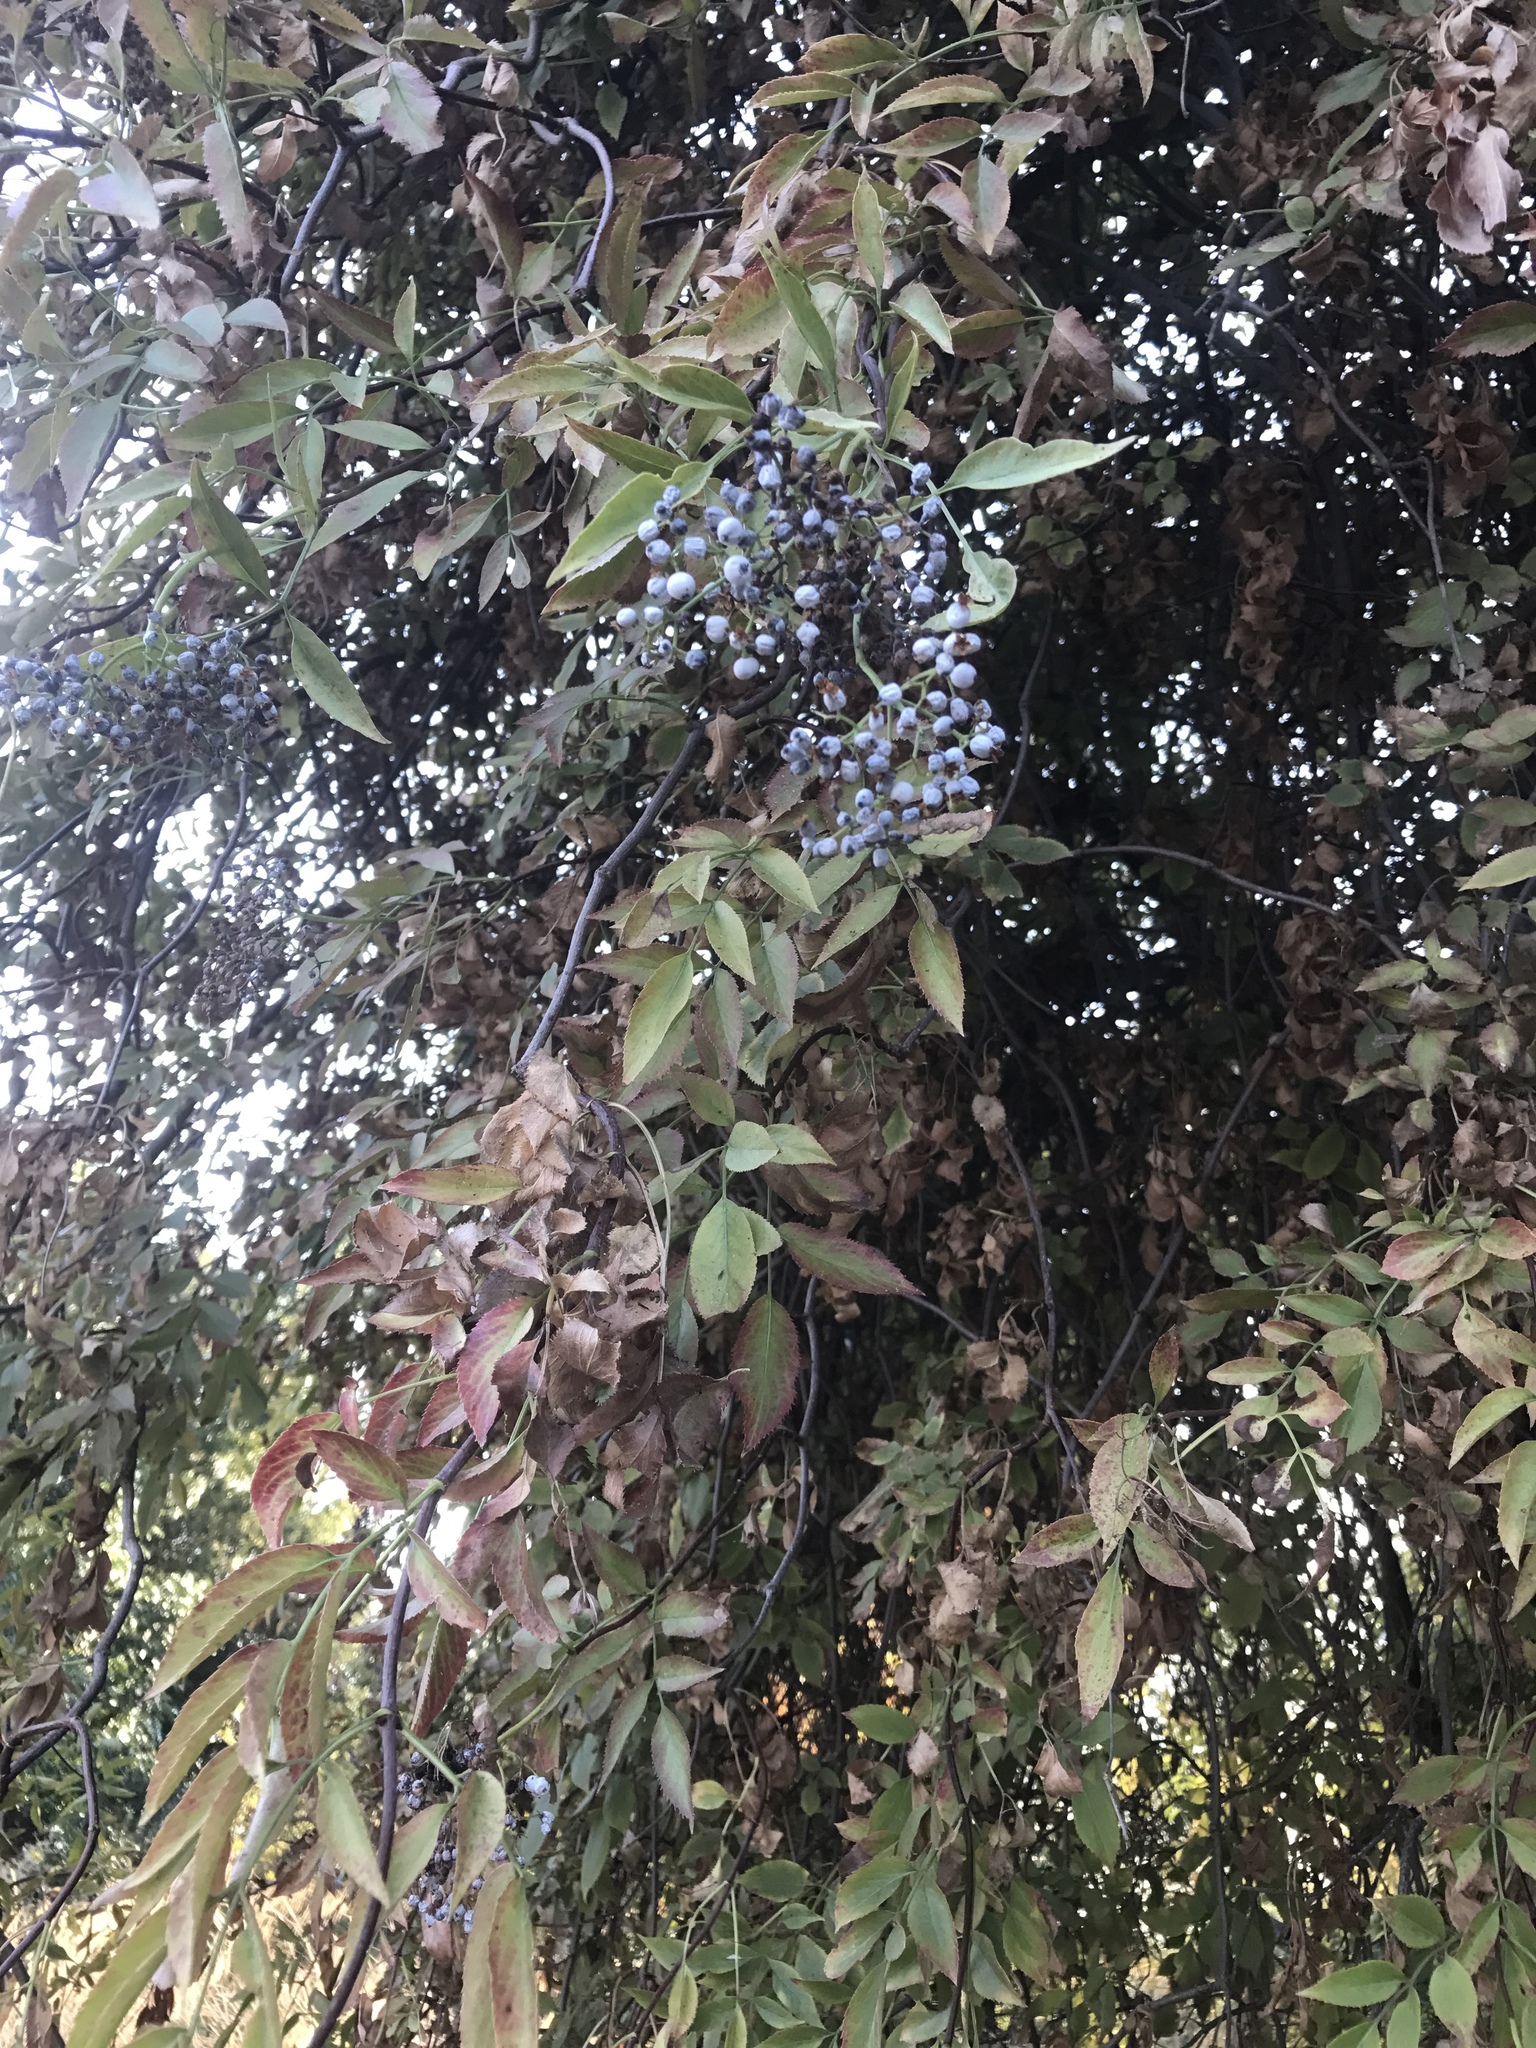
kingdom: Plantae
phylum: Tracheophyta
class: Magnoliopsida
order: Dipsacales
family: Viburnaceae
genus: Sambucus
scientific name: Sambucus cerulea
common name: Blue elder
